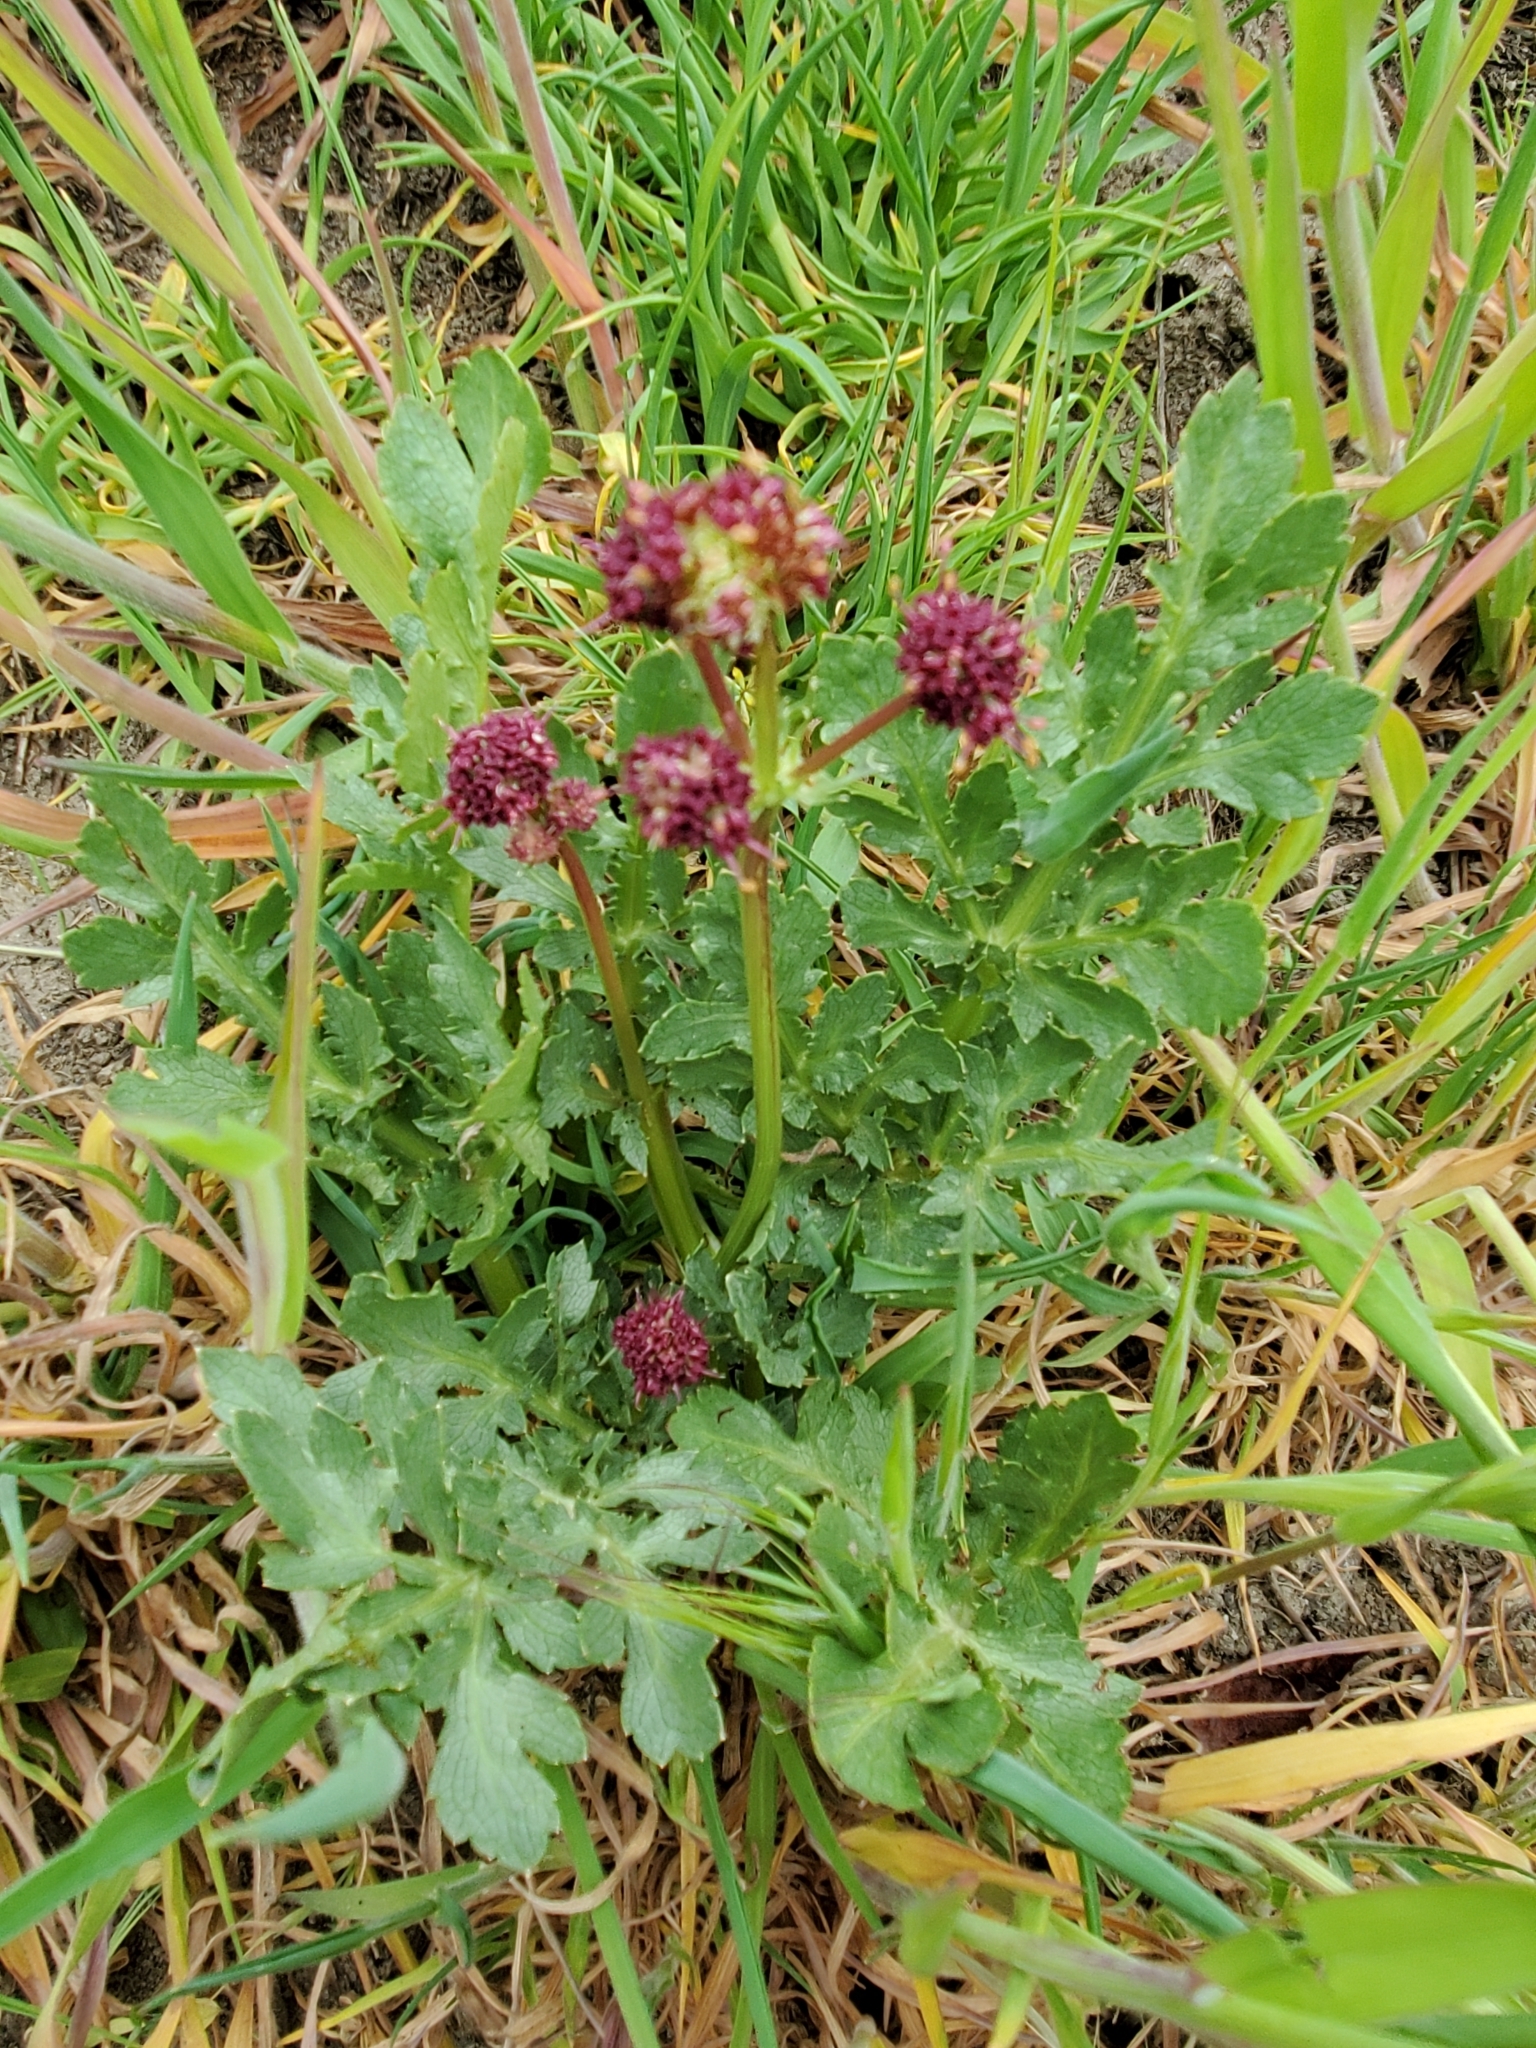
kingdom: Plantae
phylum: Tracheophyta
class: Magnoliopsida
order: Apiales
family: Apiaceae
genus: Sanicula
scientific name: Sanicula bipinnatifida
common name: Shoe-buttons
